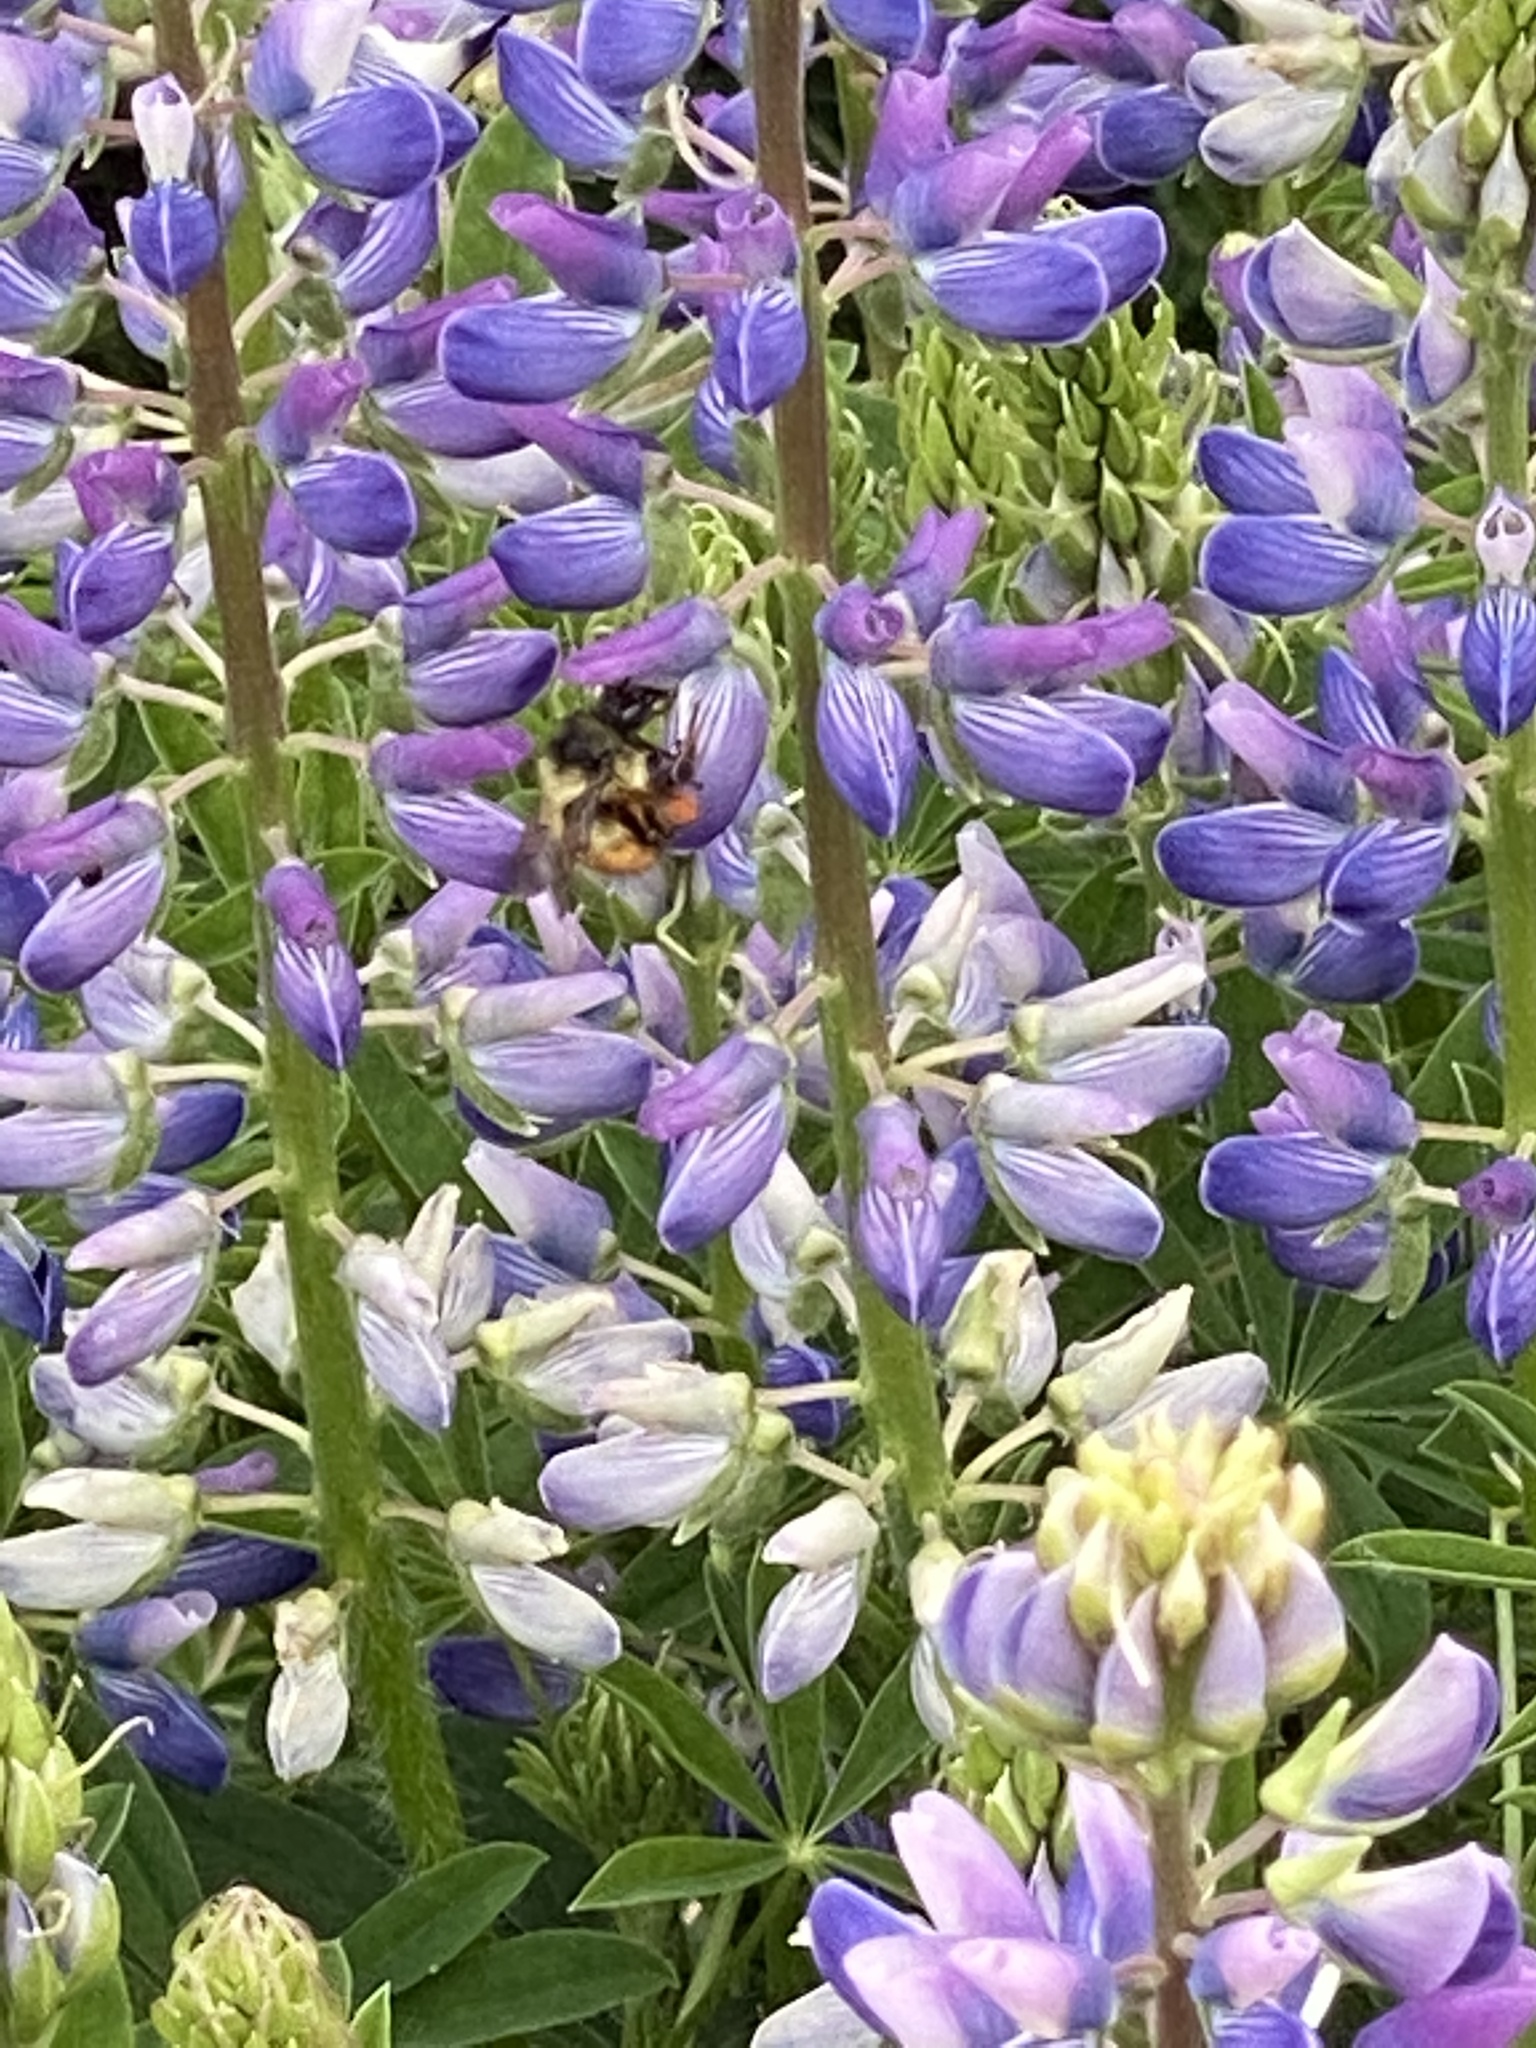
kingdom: Animalia
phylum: Arthropoda
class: Insecta
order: Hymenoptera
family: Apidae
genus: Bombus
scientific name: Bombus melanopygus
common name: Black tail bumble bee
